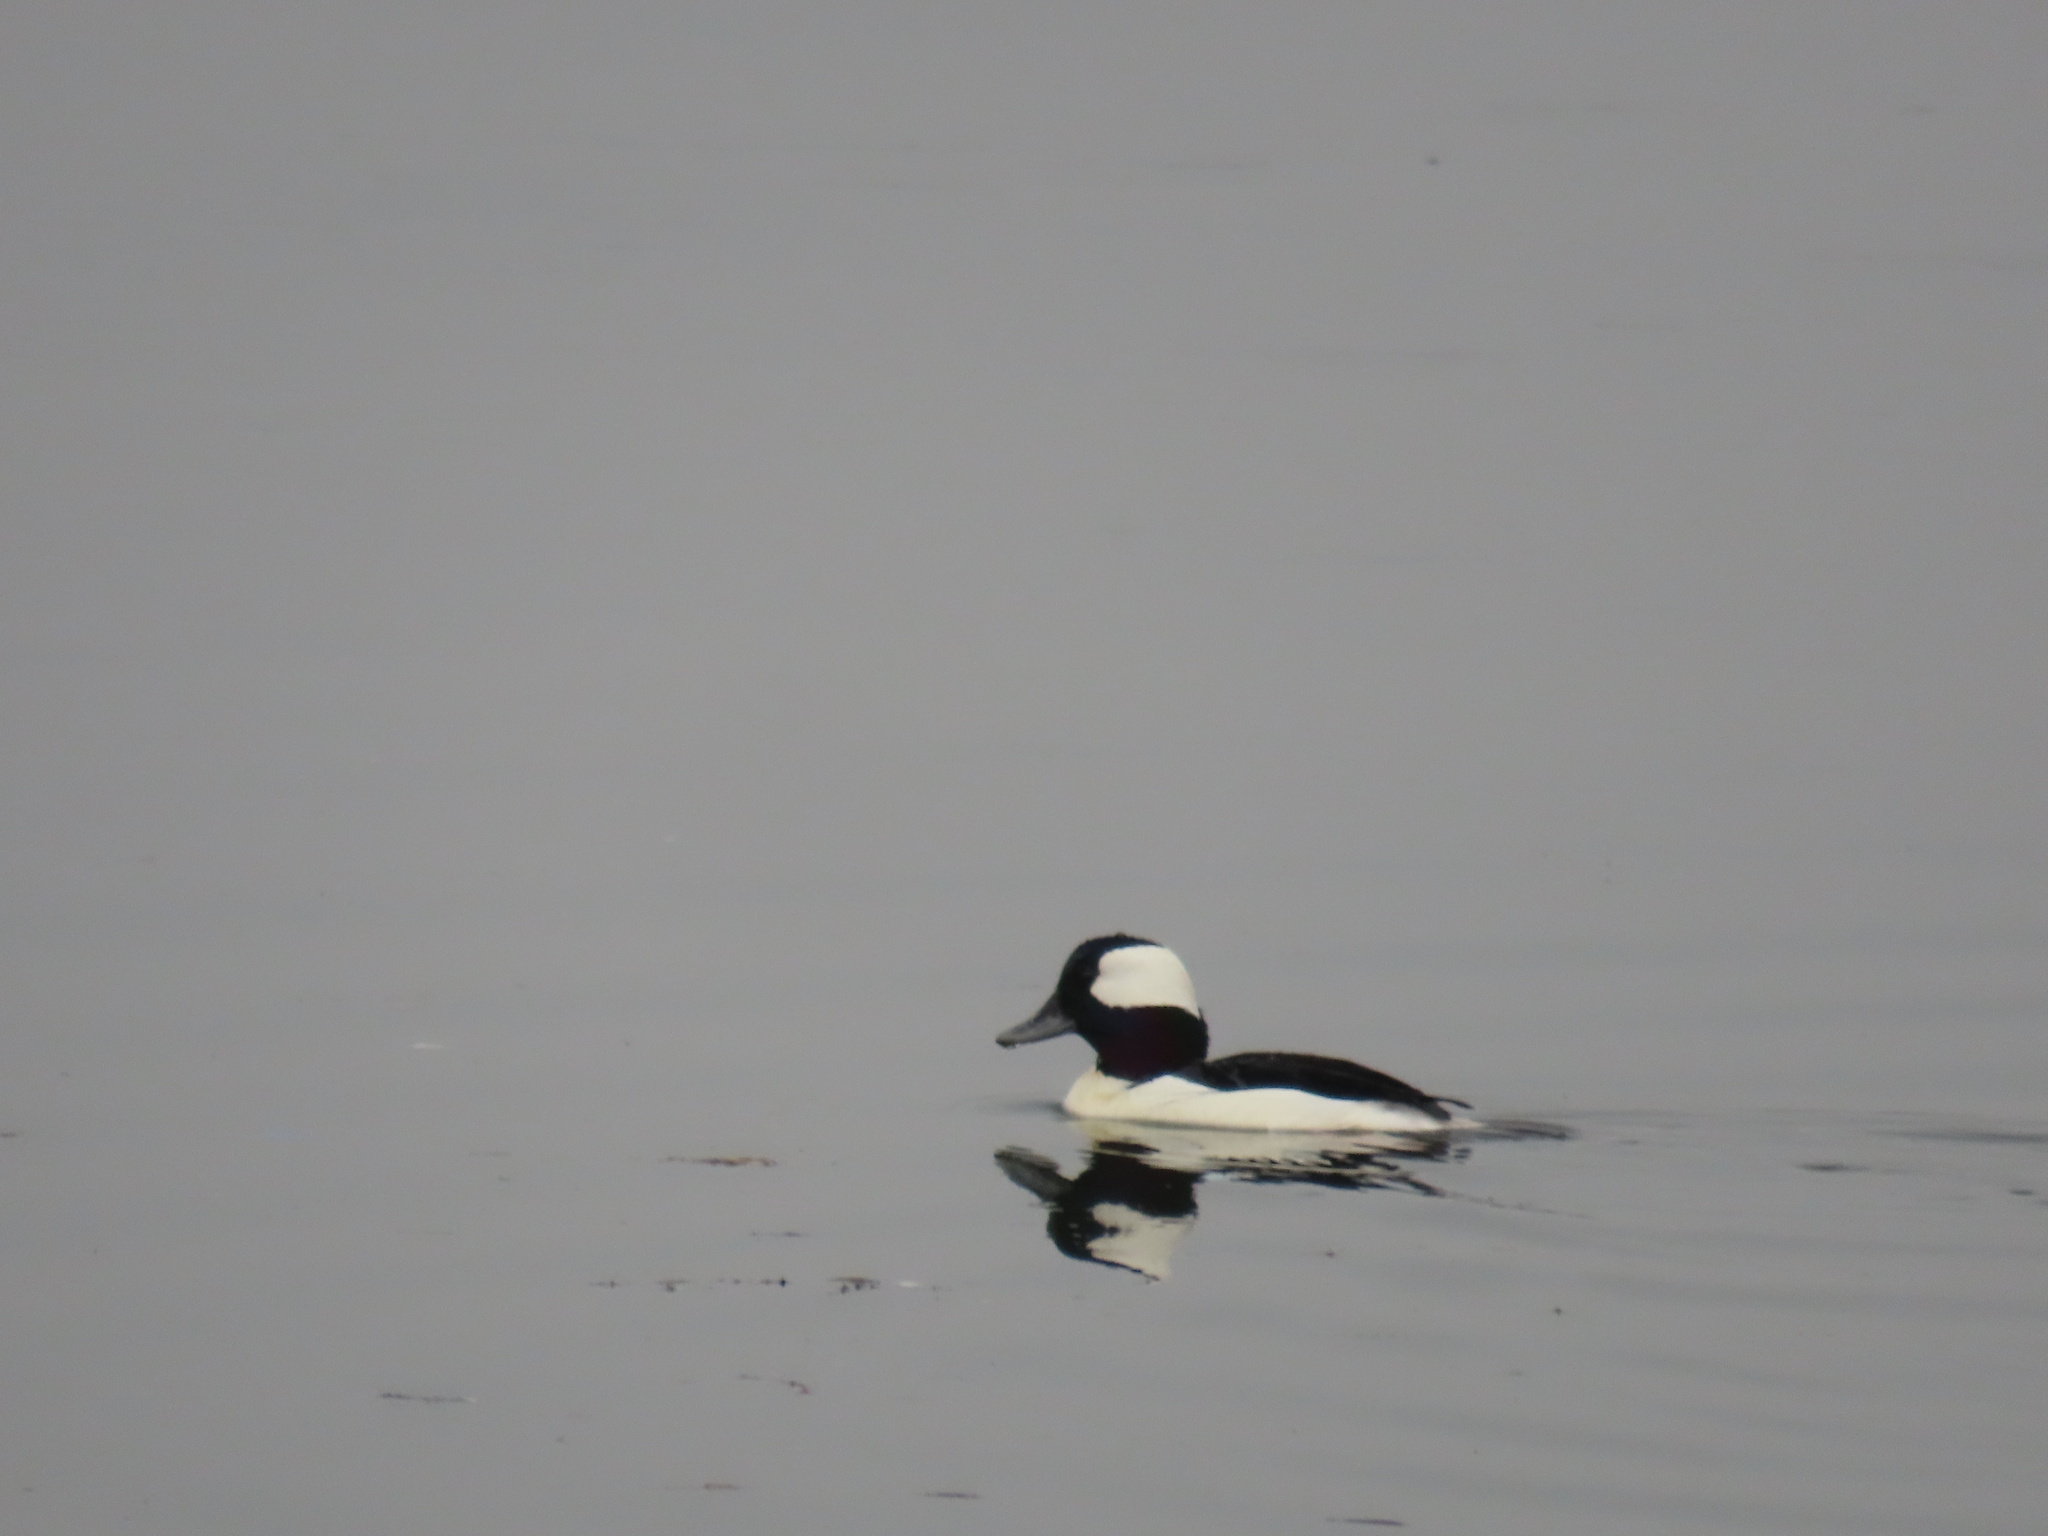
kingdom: Animalia
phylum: Chordata
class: Aves
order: Anseriformes
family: Anatidae
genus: Bucephala
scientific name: Bucephala albeola
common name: Bufflehead
